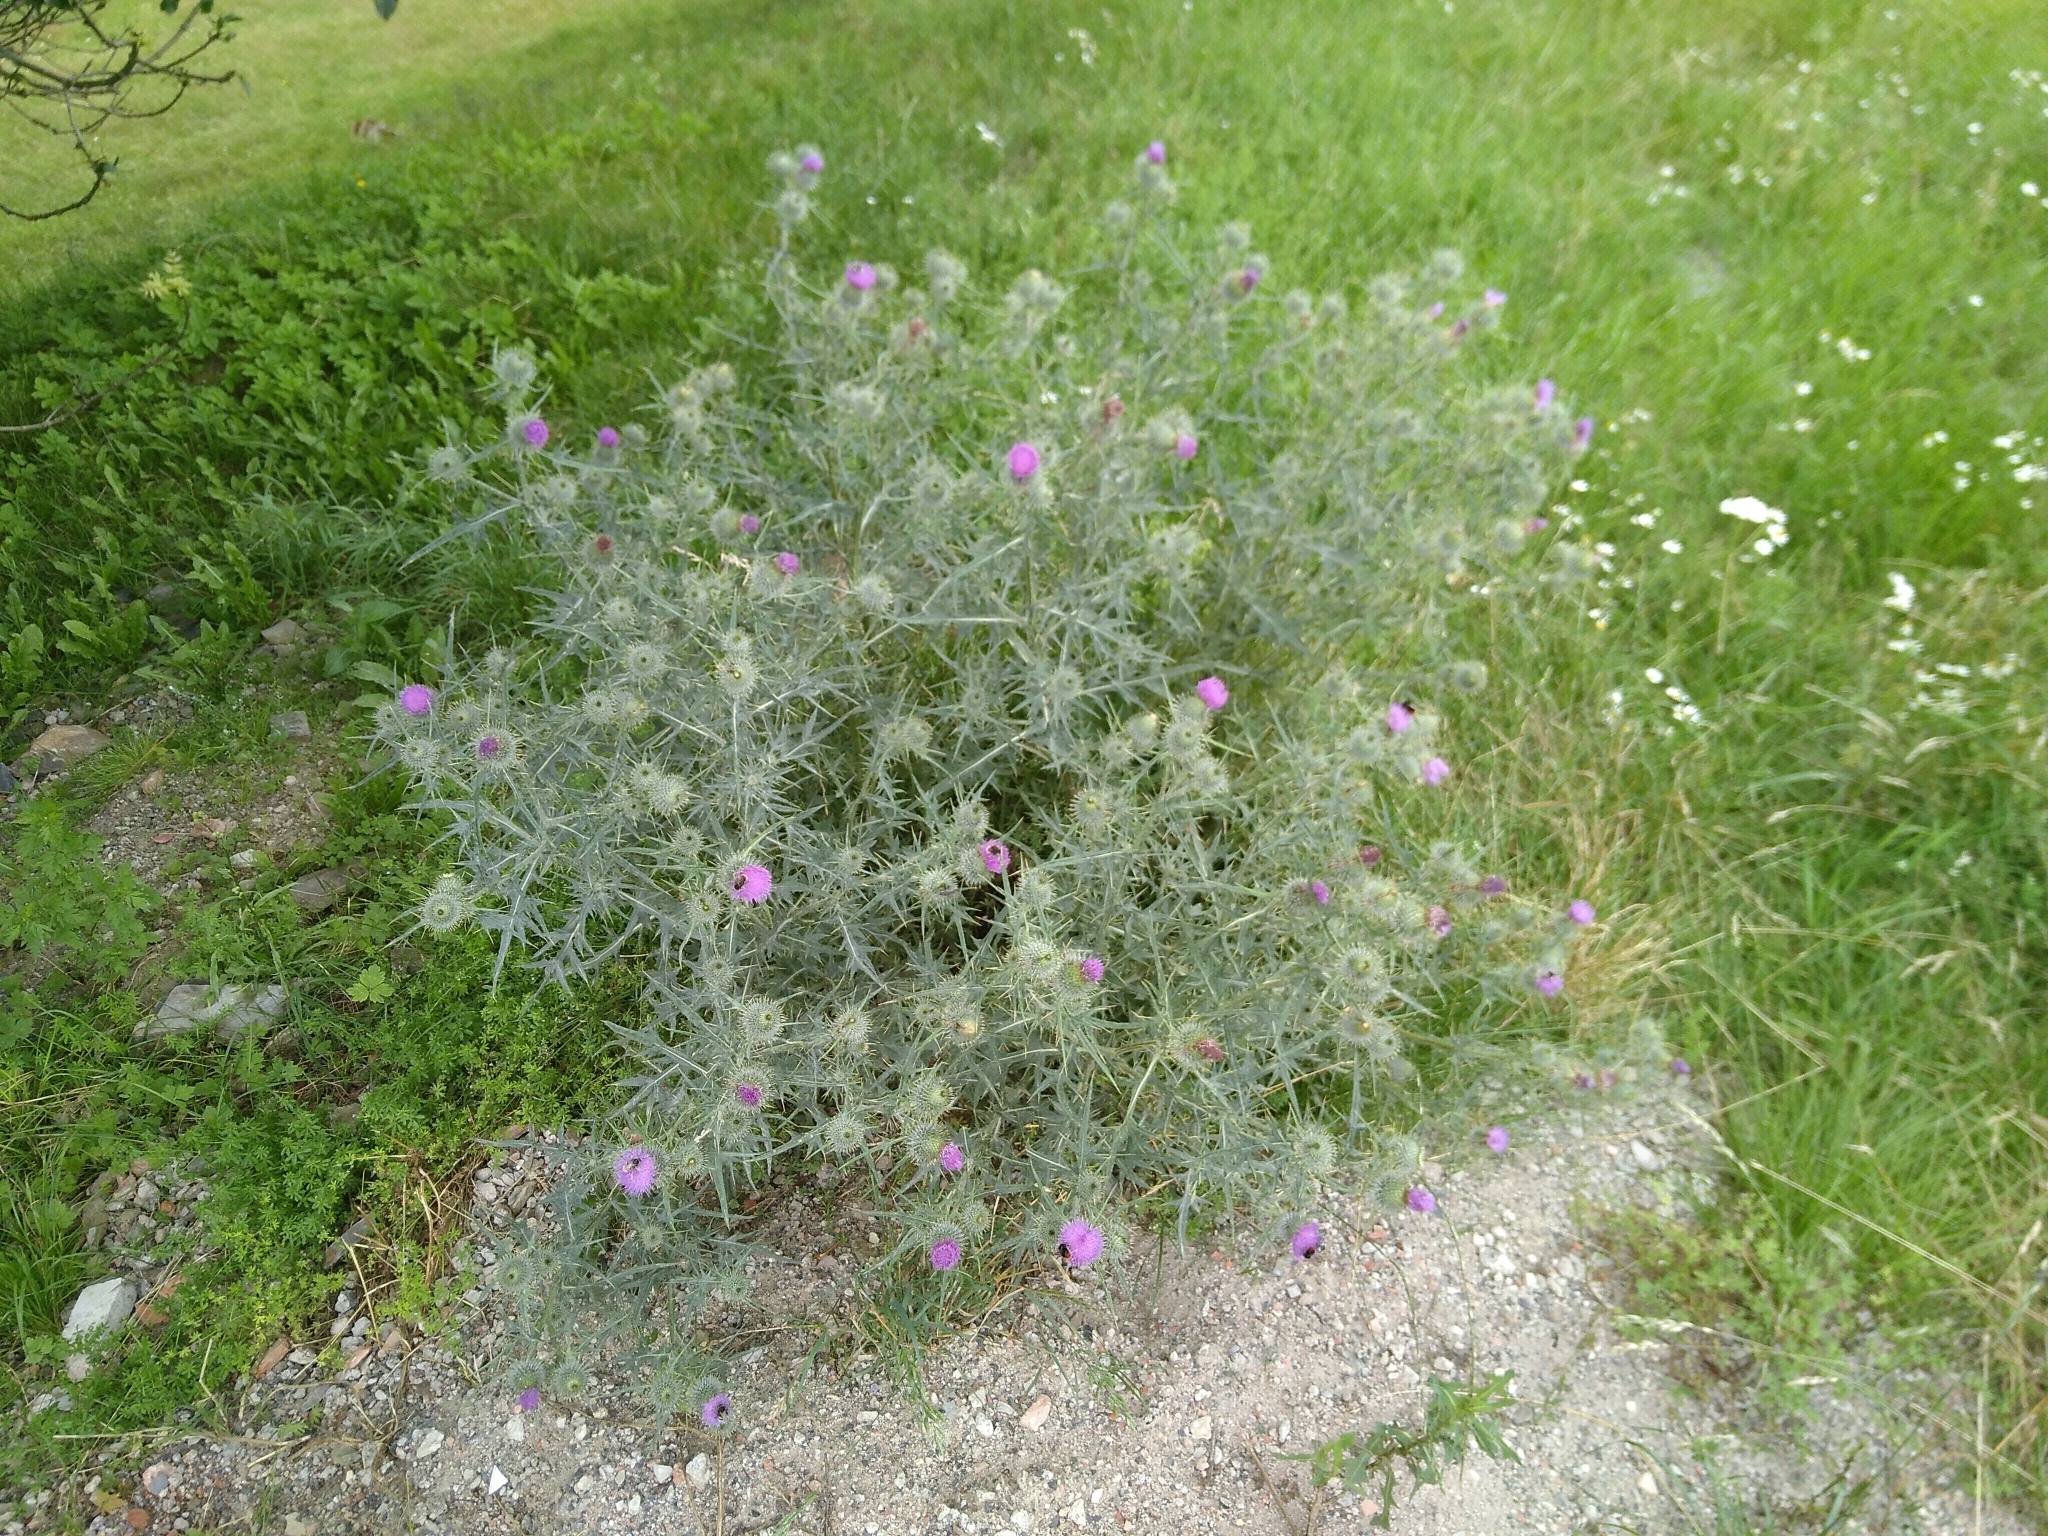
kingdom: Plantae
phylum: Tracheophyta
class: Magnoliopsida
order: Asterales
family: Asteraceae
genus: Cirsium
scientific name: Cirsium vulgare
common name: Bull thistle
